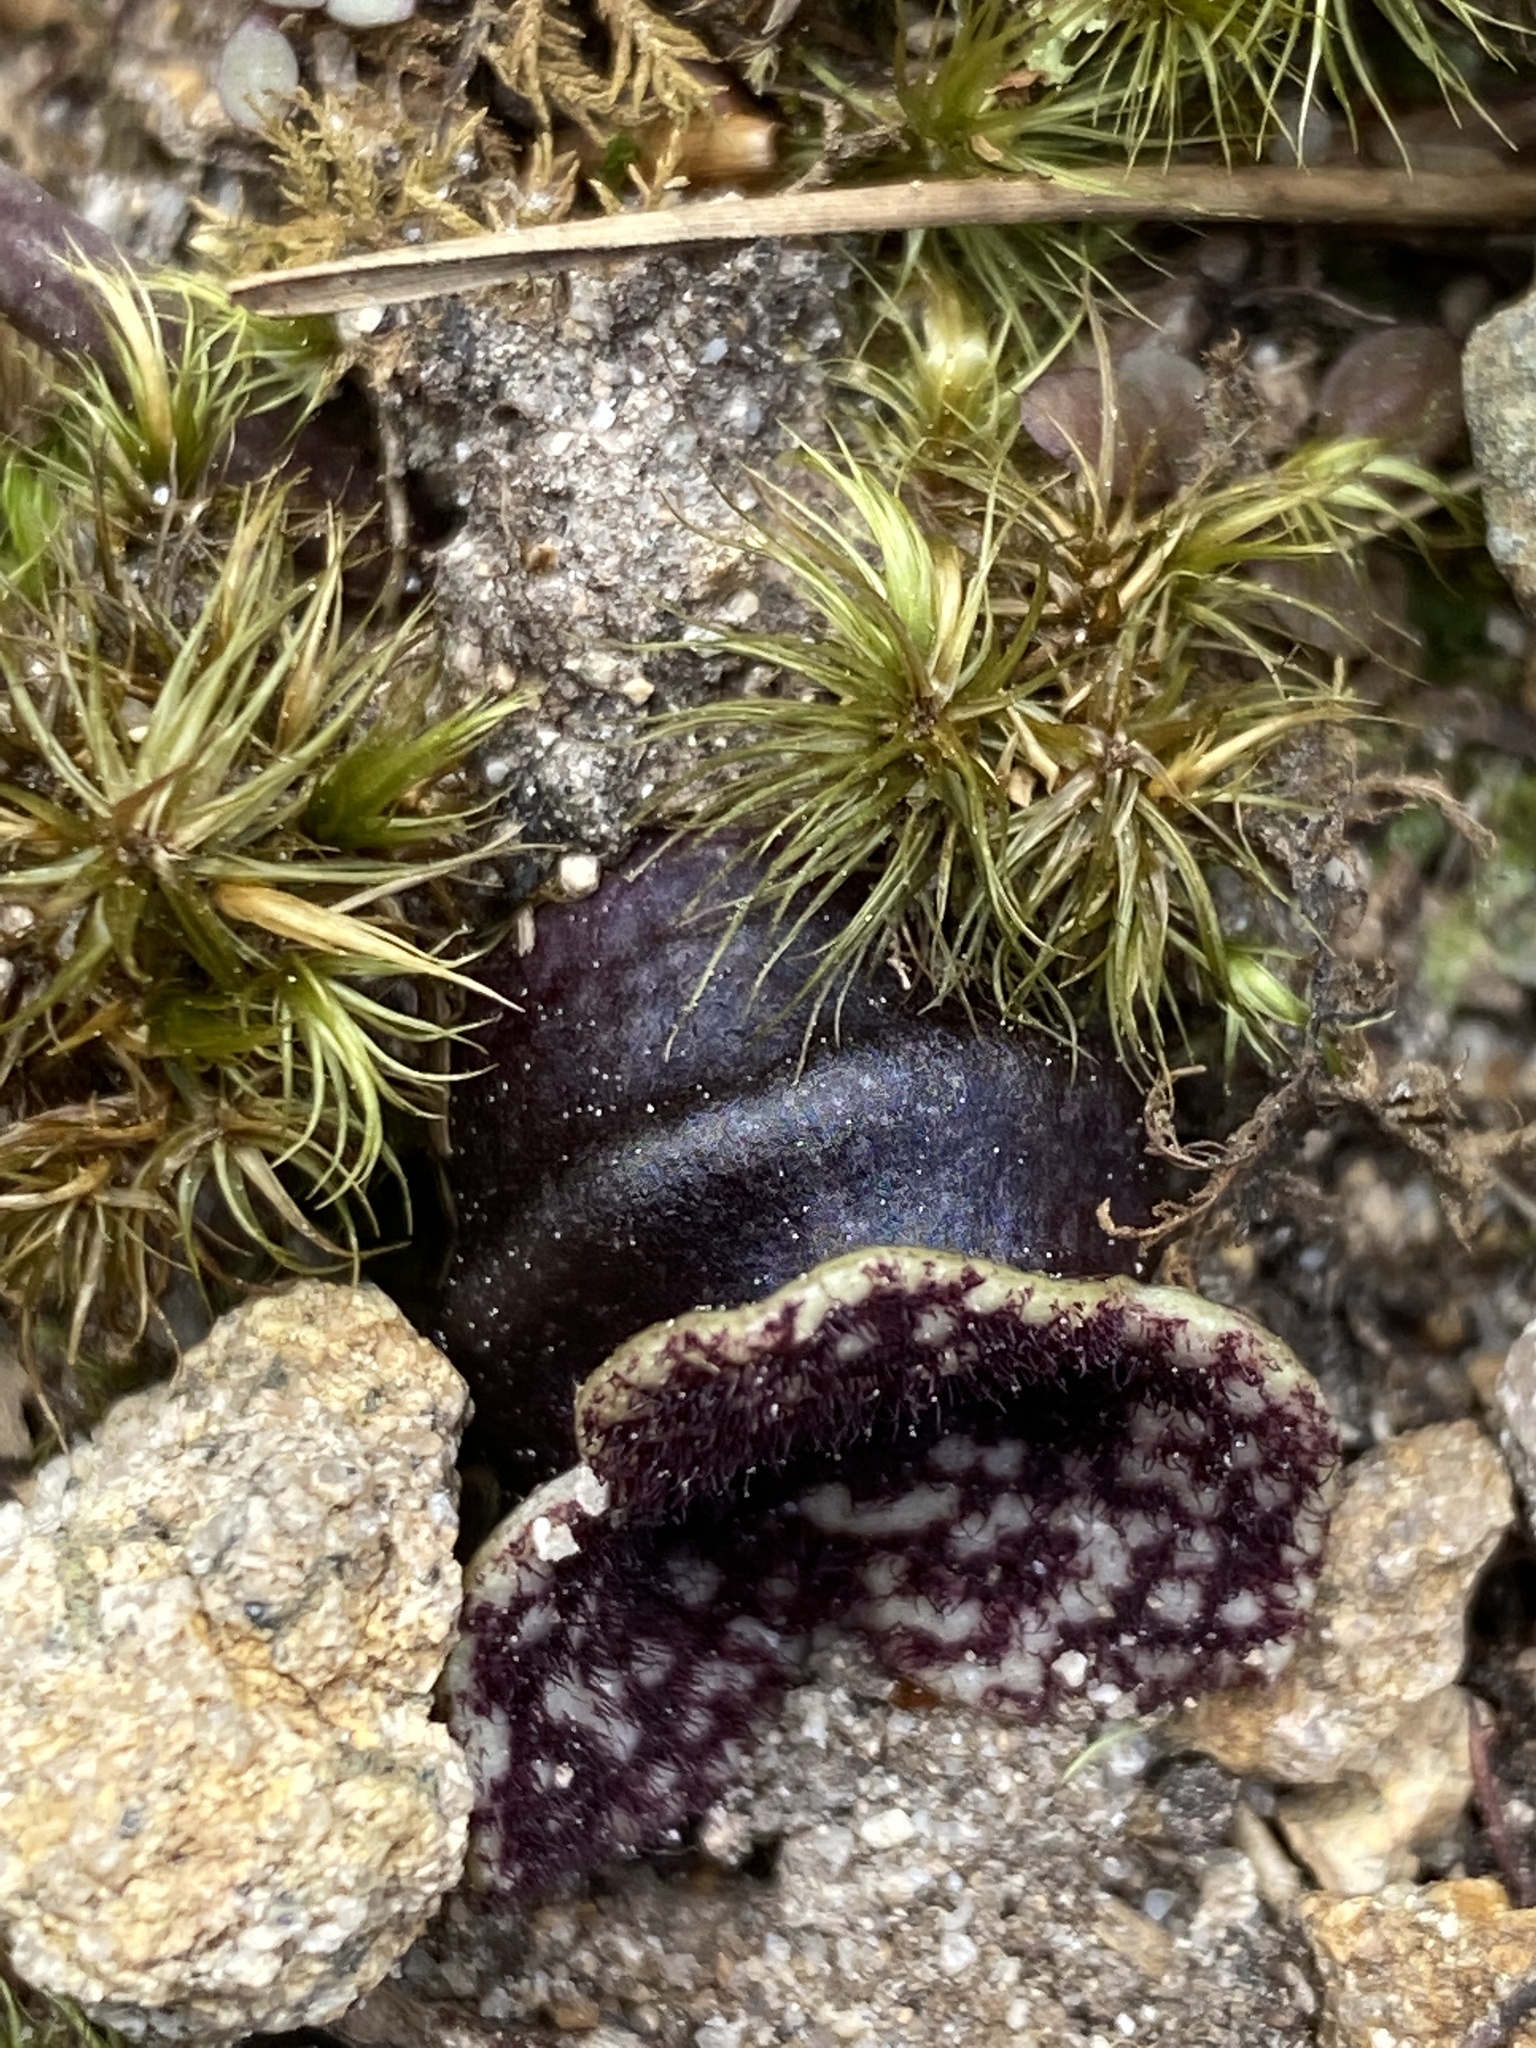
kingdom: Plantae
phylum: Tracheophyta
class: Magnoliopsida
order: Piperales
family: Aristolochiaceae
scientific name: Aristolochiaceae
